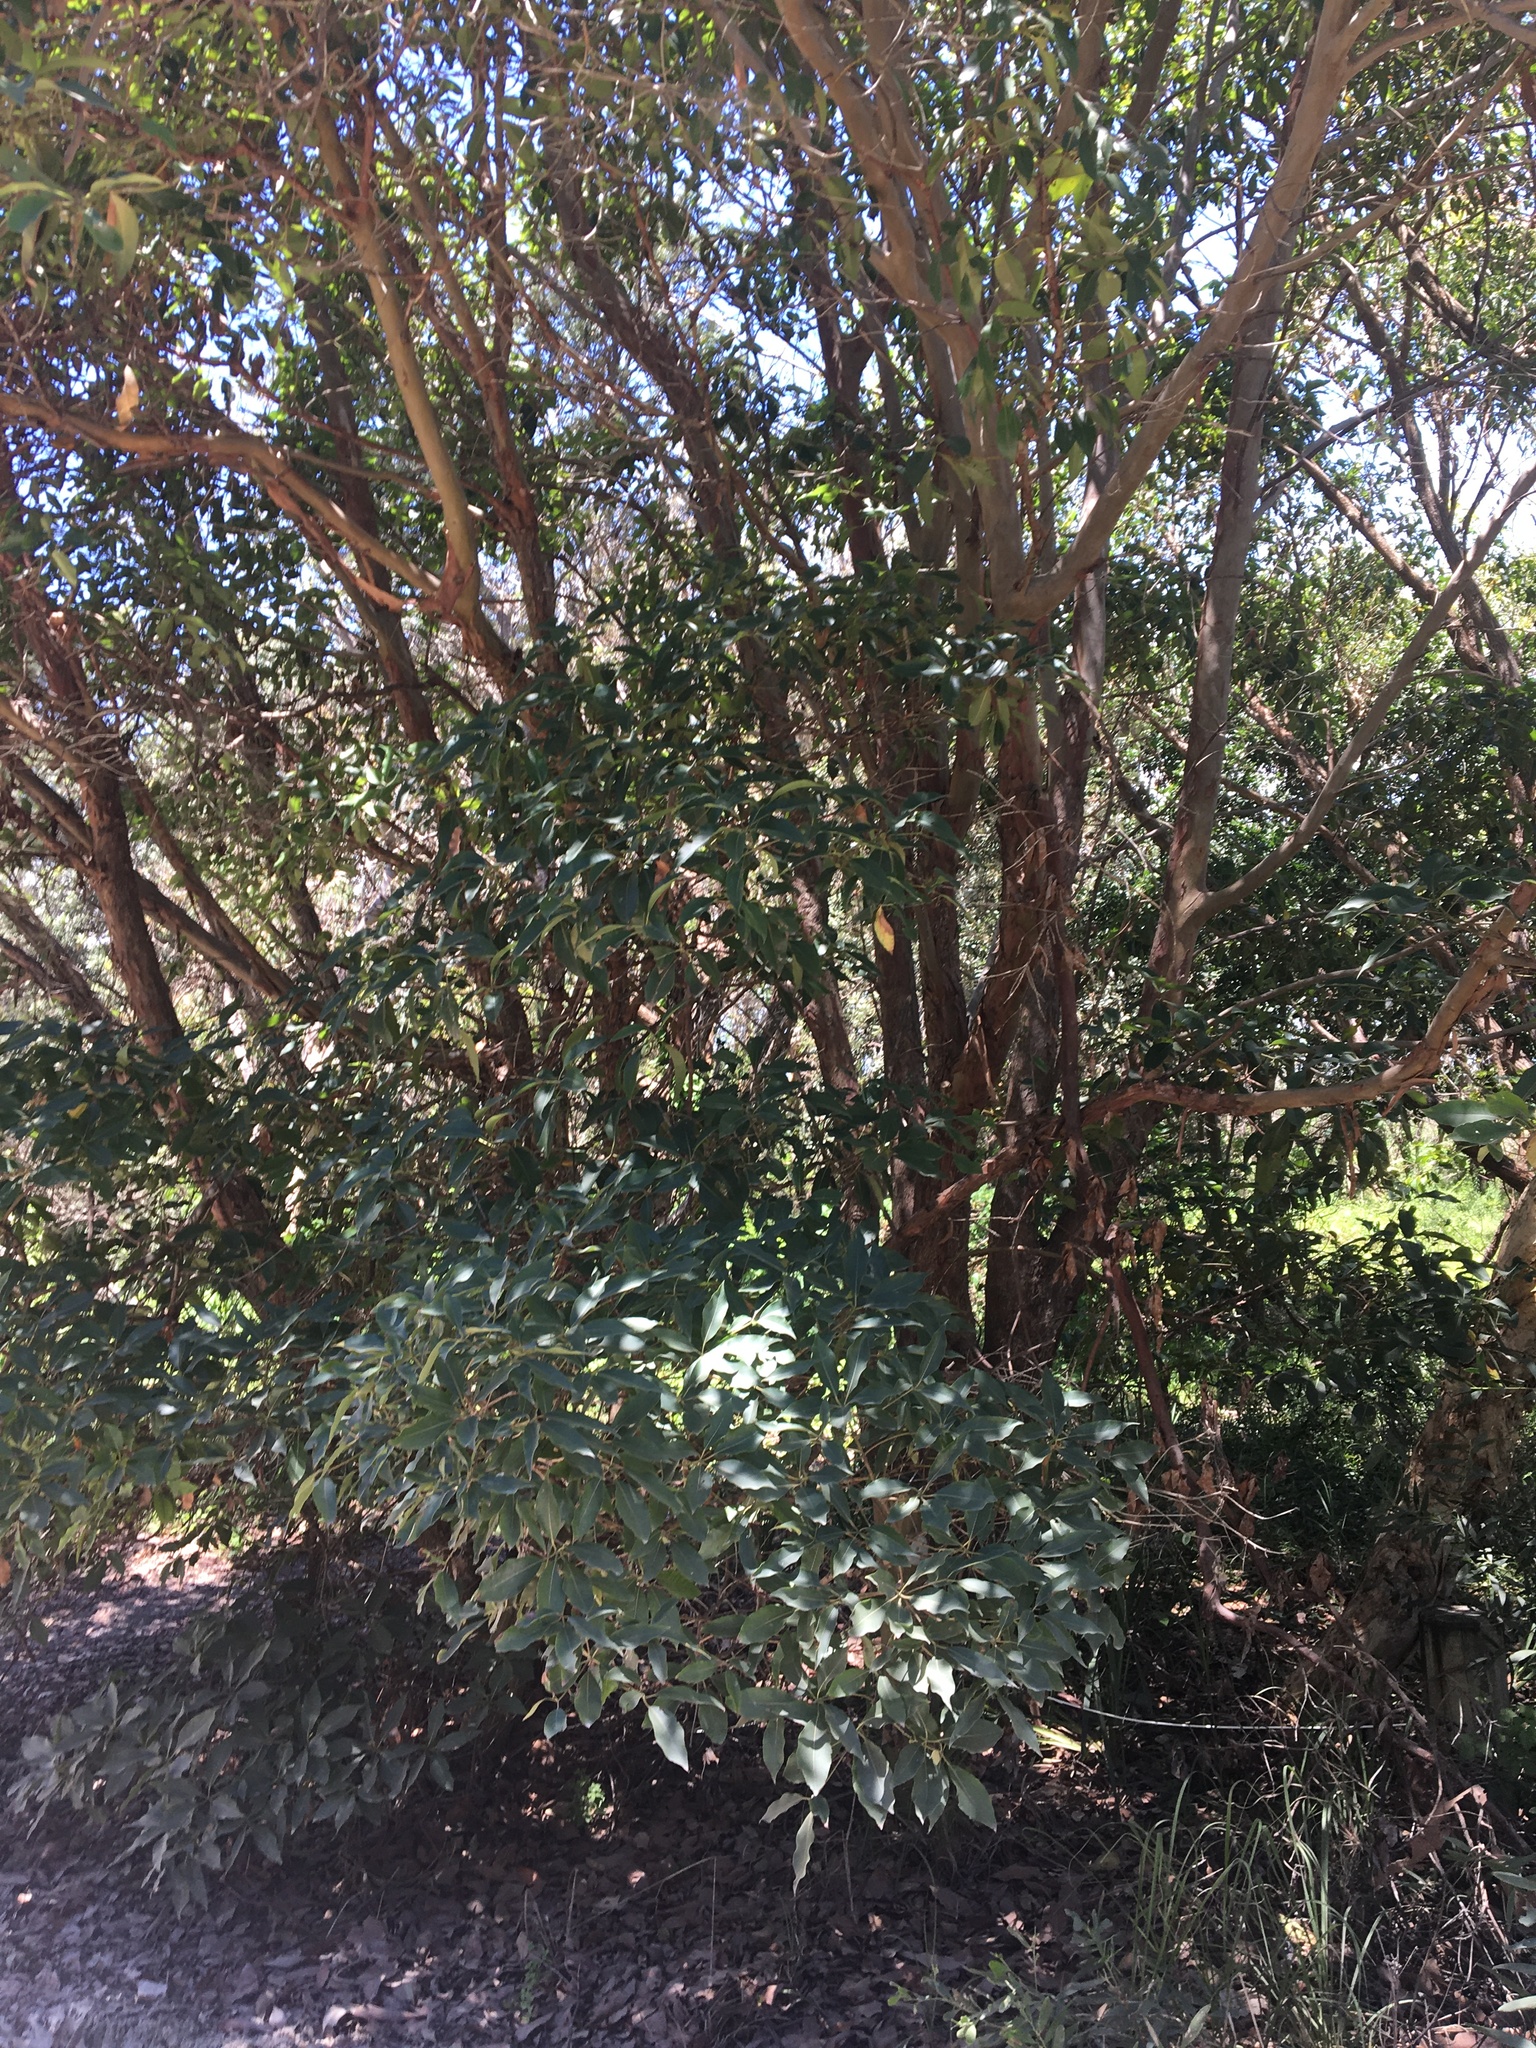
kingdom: Plantae
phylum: Tracheophyta
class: Magnoliopsida
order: Myrtales
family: Myrtaceae
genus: Lophostemon
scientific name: Lophostemon confertus
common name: Brisbane box
